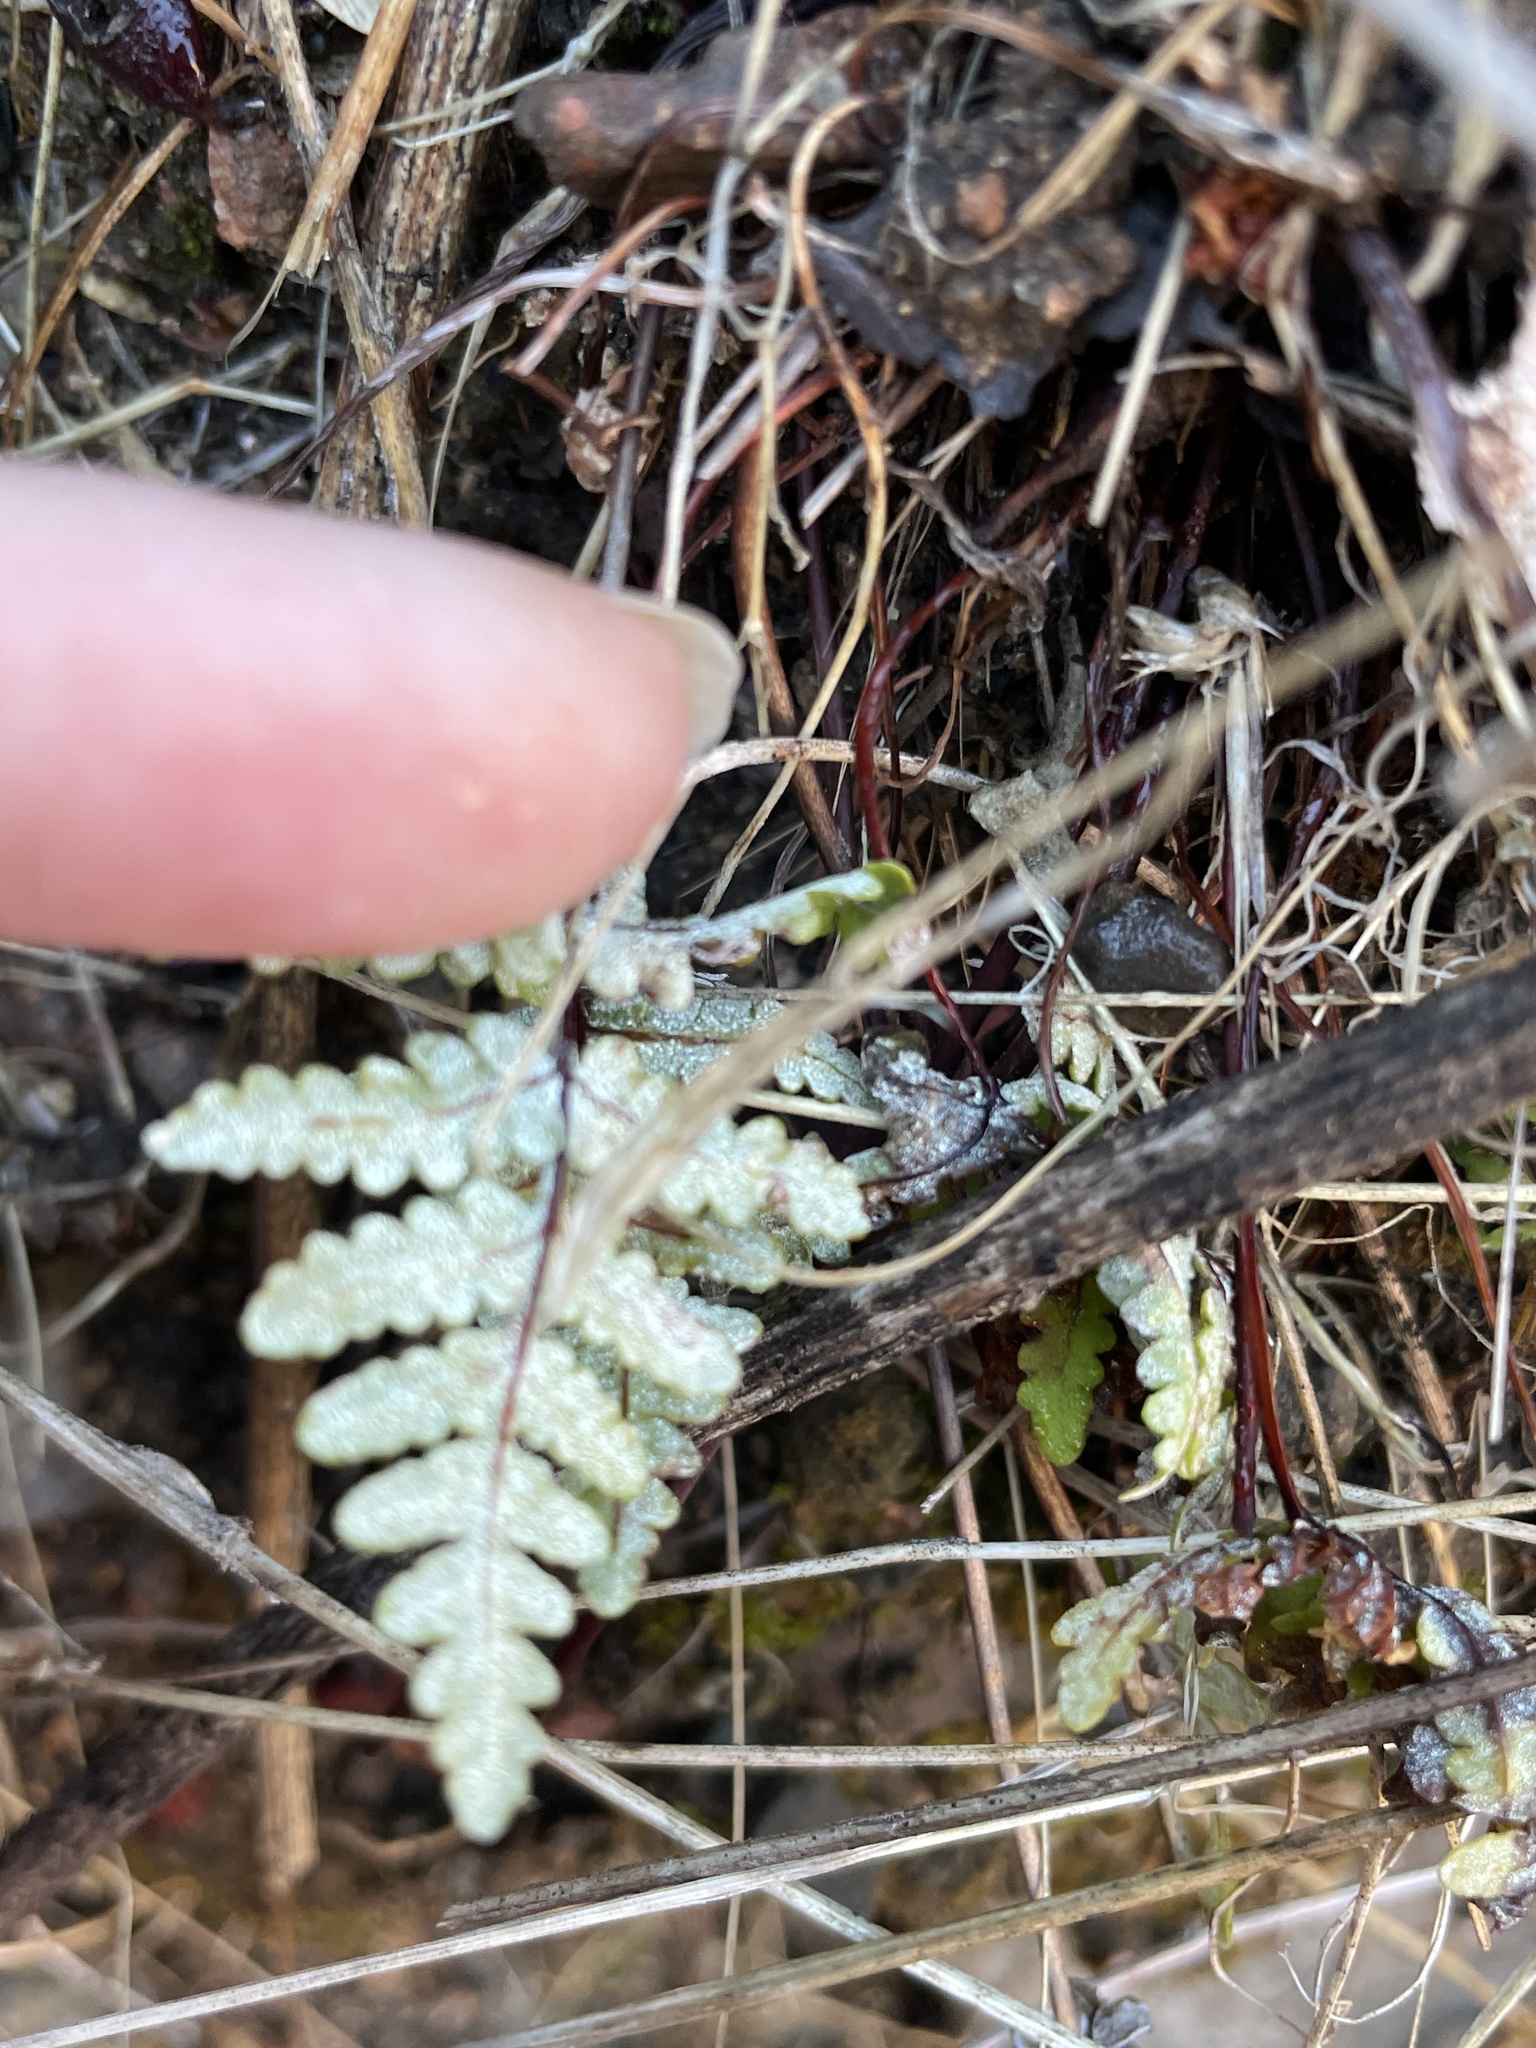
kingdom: Plantae
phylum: Tracheophyta
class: Polypodiopsida
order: Polypodiales
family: Pteridaceae
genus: Pentagramma
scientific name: Pentagramma glanduloviscida
